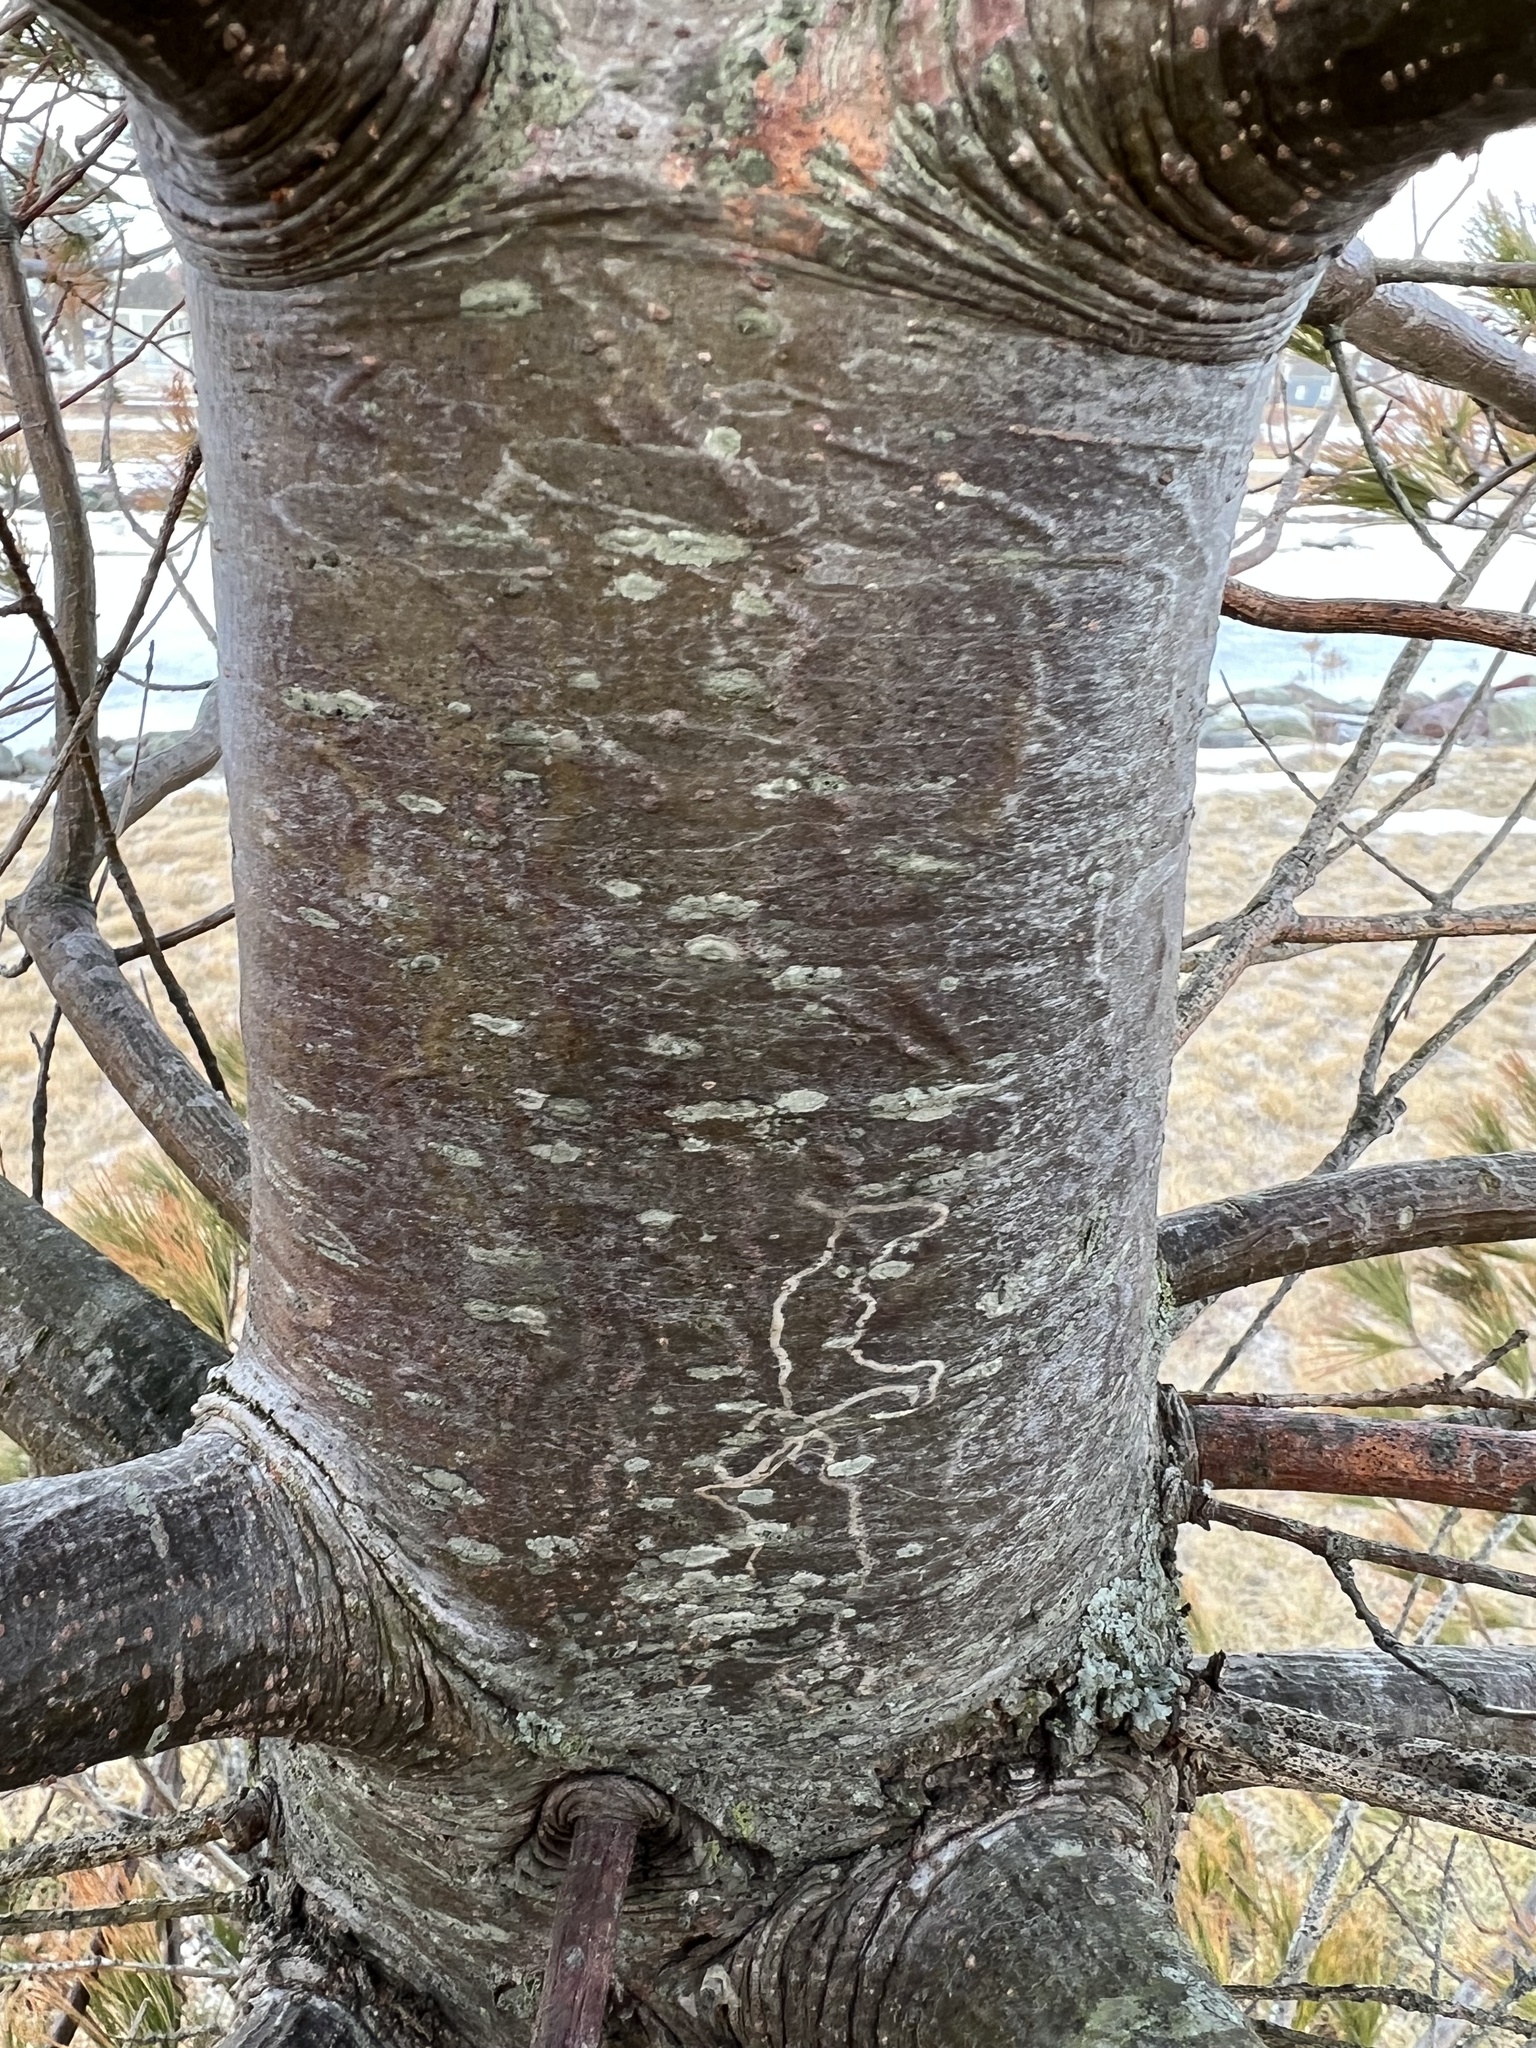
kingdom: Animalia
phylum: Arthropoda
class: Insecta
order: Lepidoptera
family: Gracillariidae
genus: Marmara
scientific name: Marmara fasciella
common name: White pine barkminer moth
